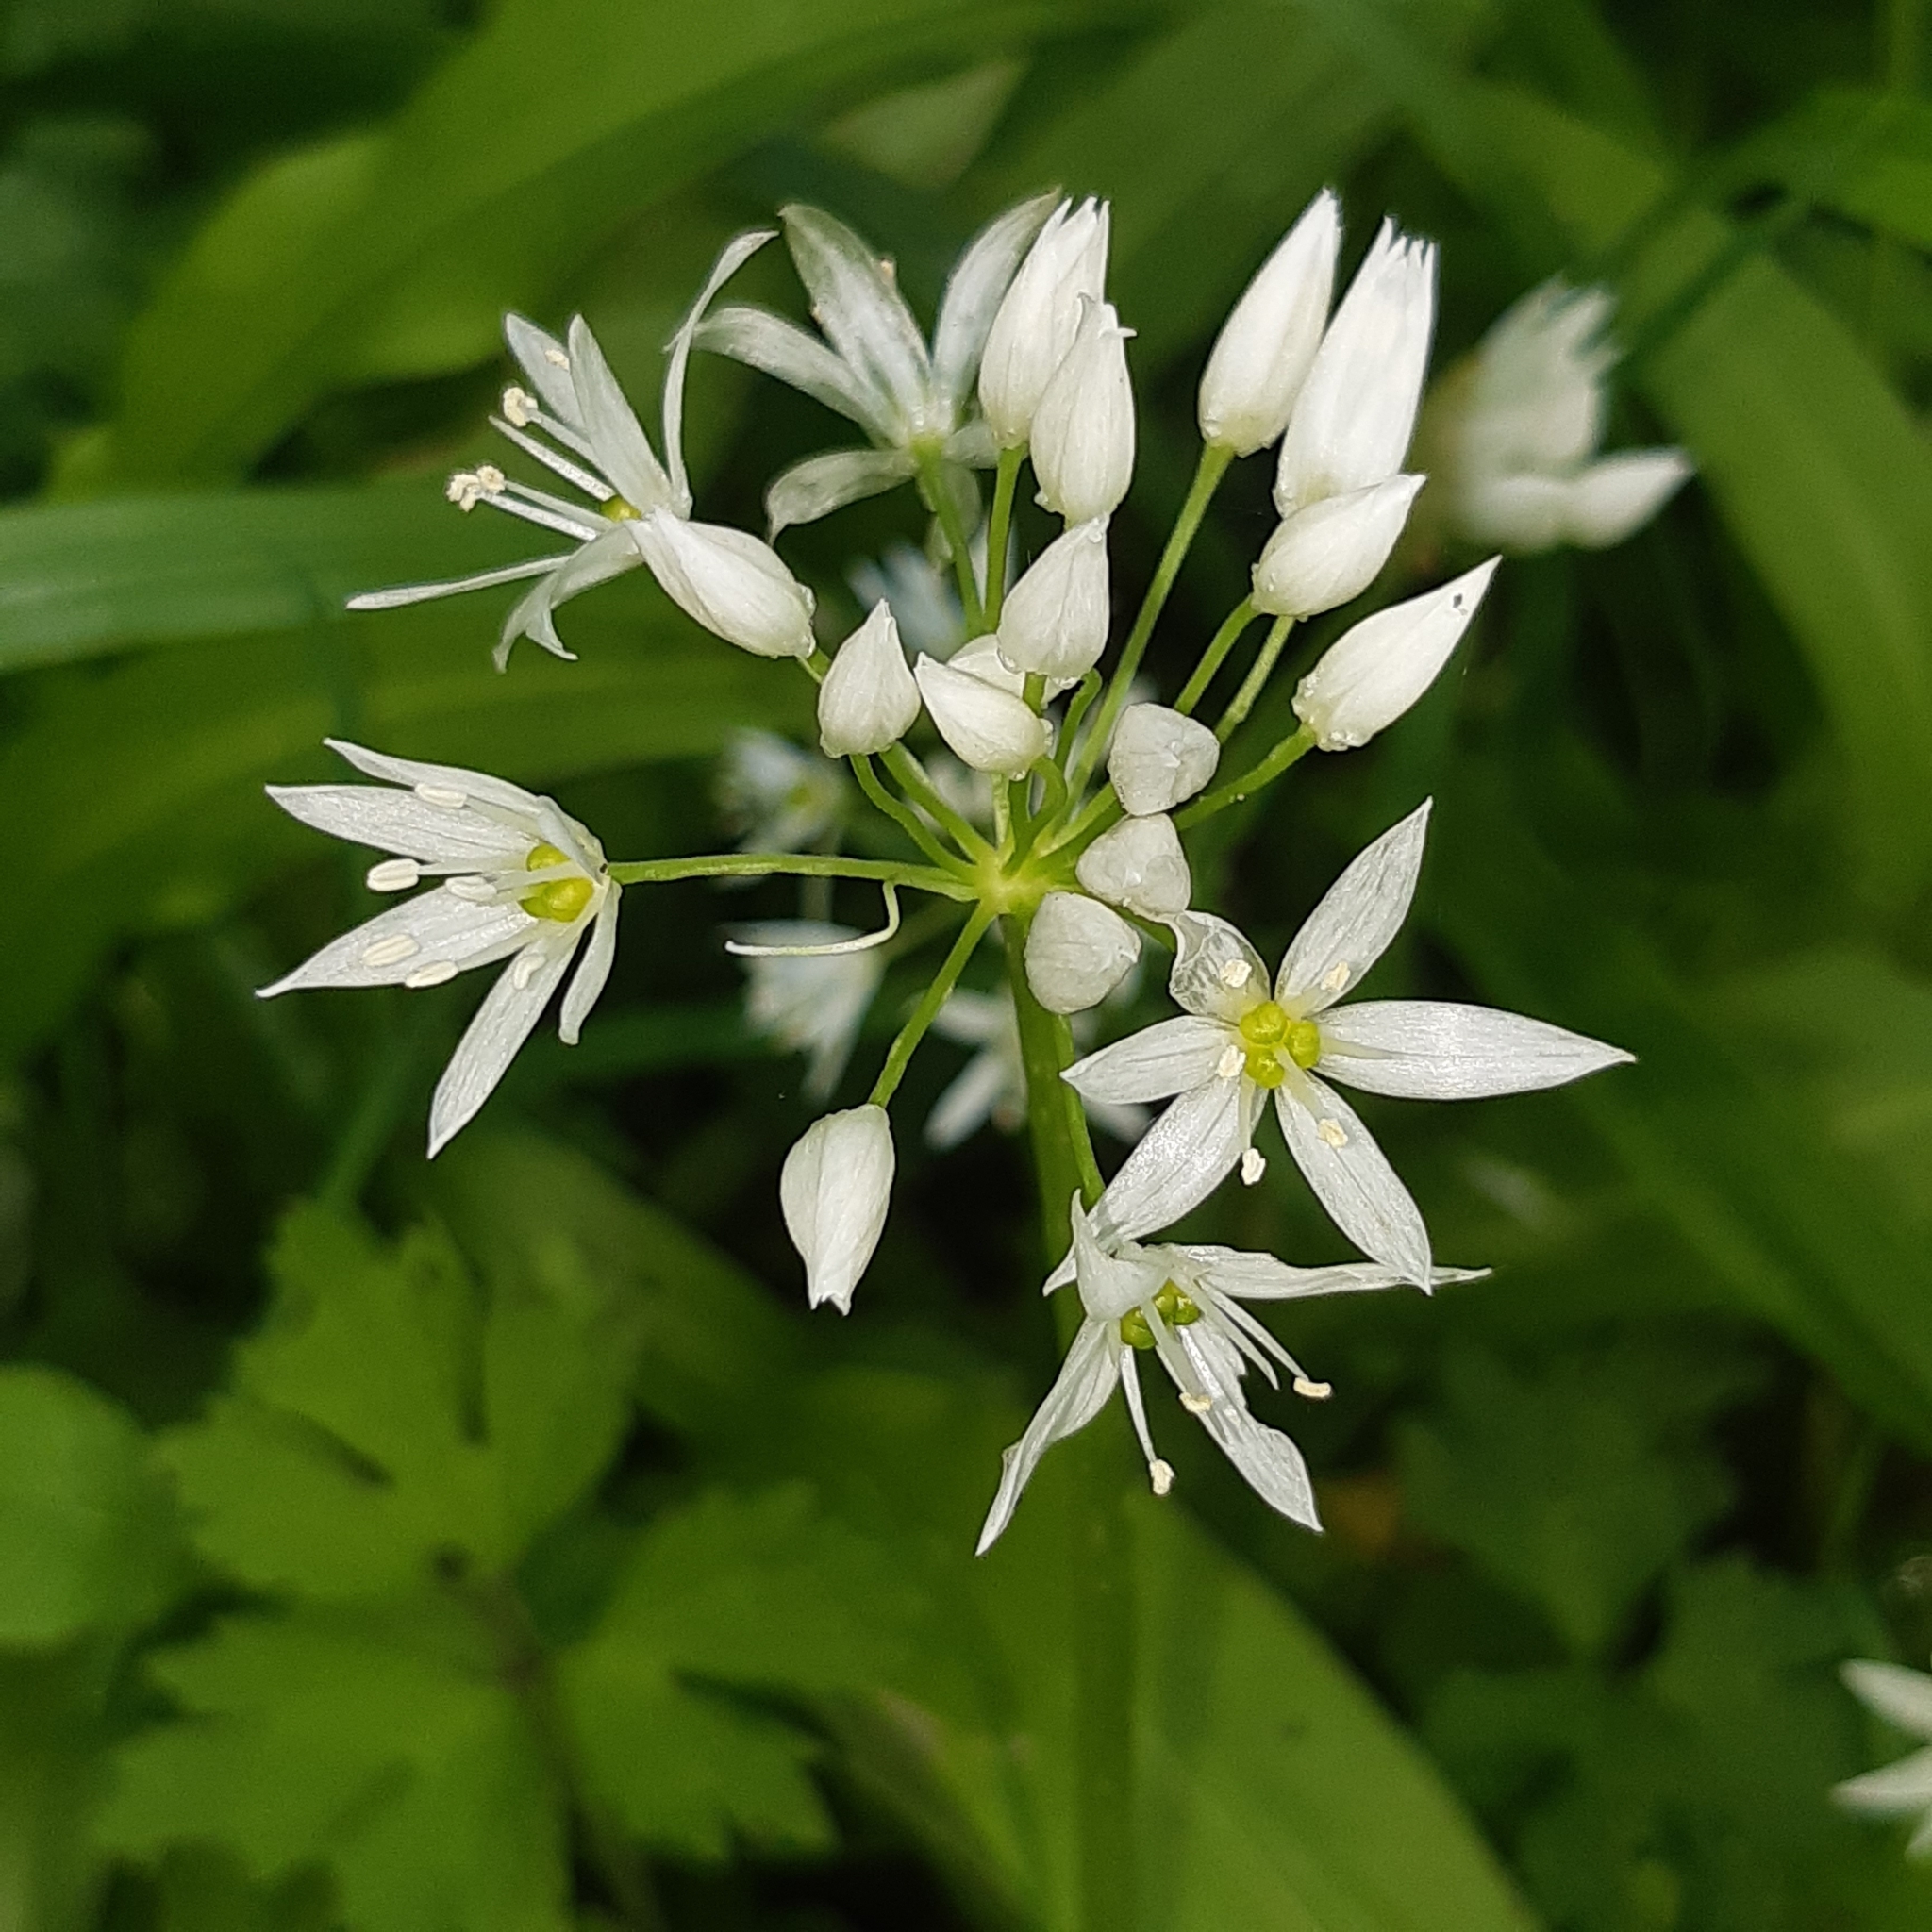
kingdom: Plantae
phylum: Tracheophyta
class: Liliopsida
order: Asparagales
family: Amaryllidaceae
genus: Allium
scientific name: Allium ursinum
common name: Ramsons
